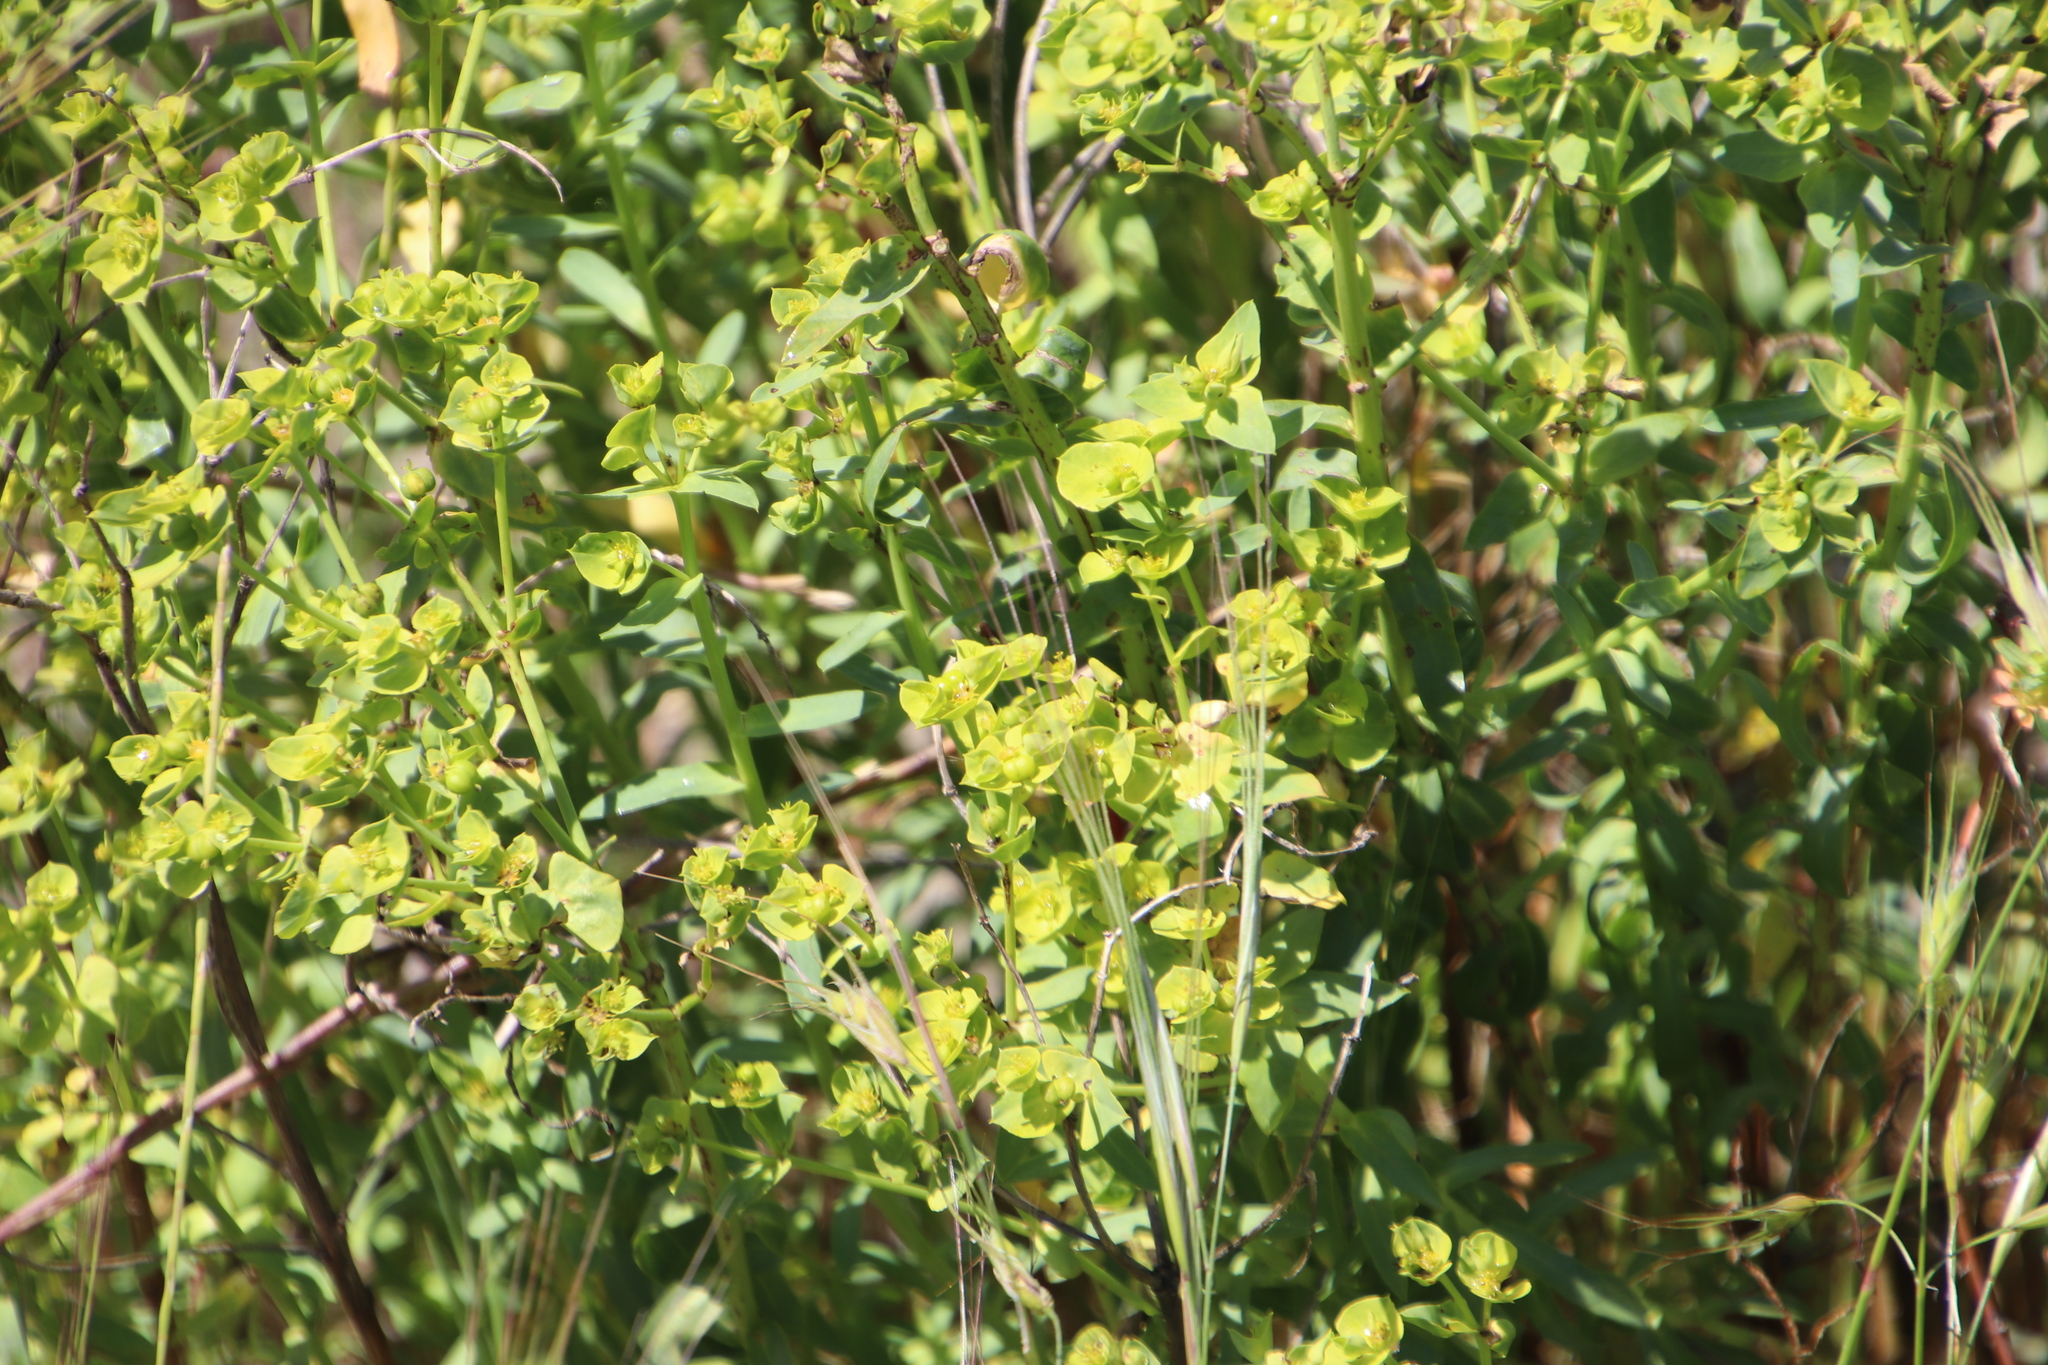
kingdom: Plantae
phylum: Tracheophyta
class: Magnoliopsida
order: Malpighiales
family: Euphorbiaceae
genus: Euphorbia
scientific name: Euphorbia terracina
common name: Geraldton carnation weed
